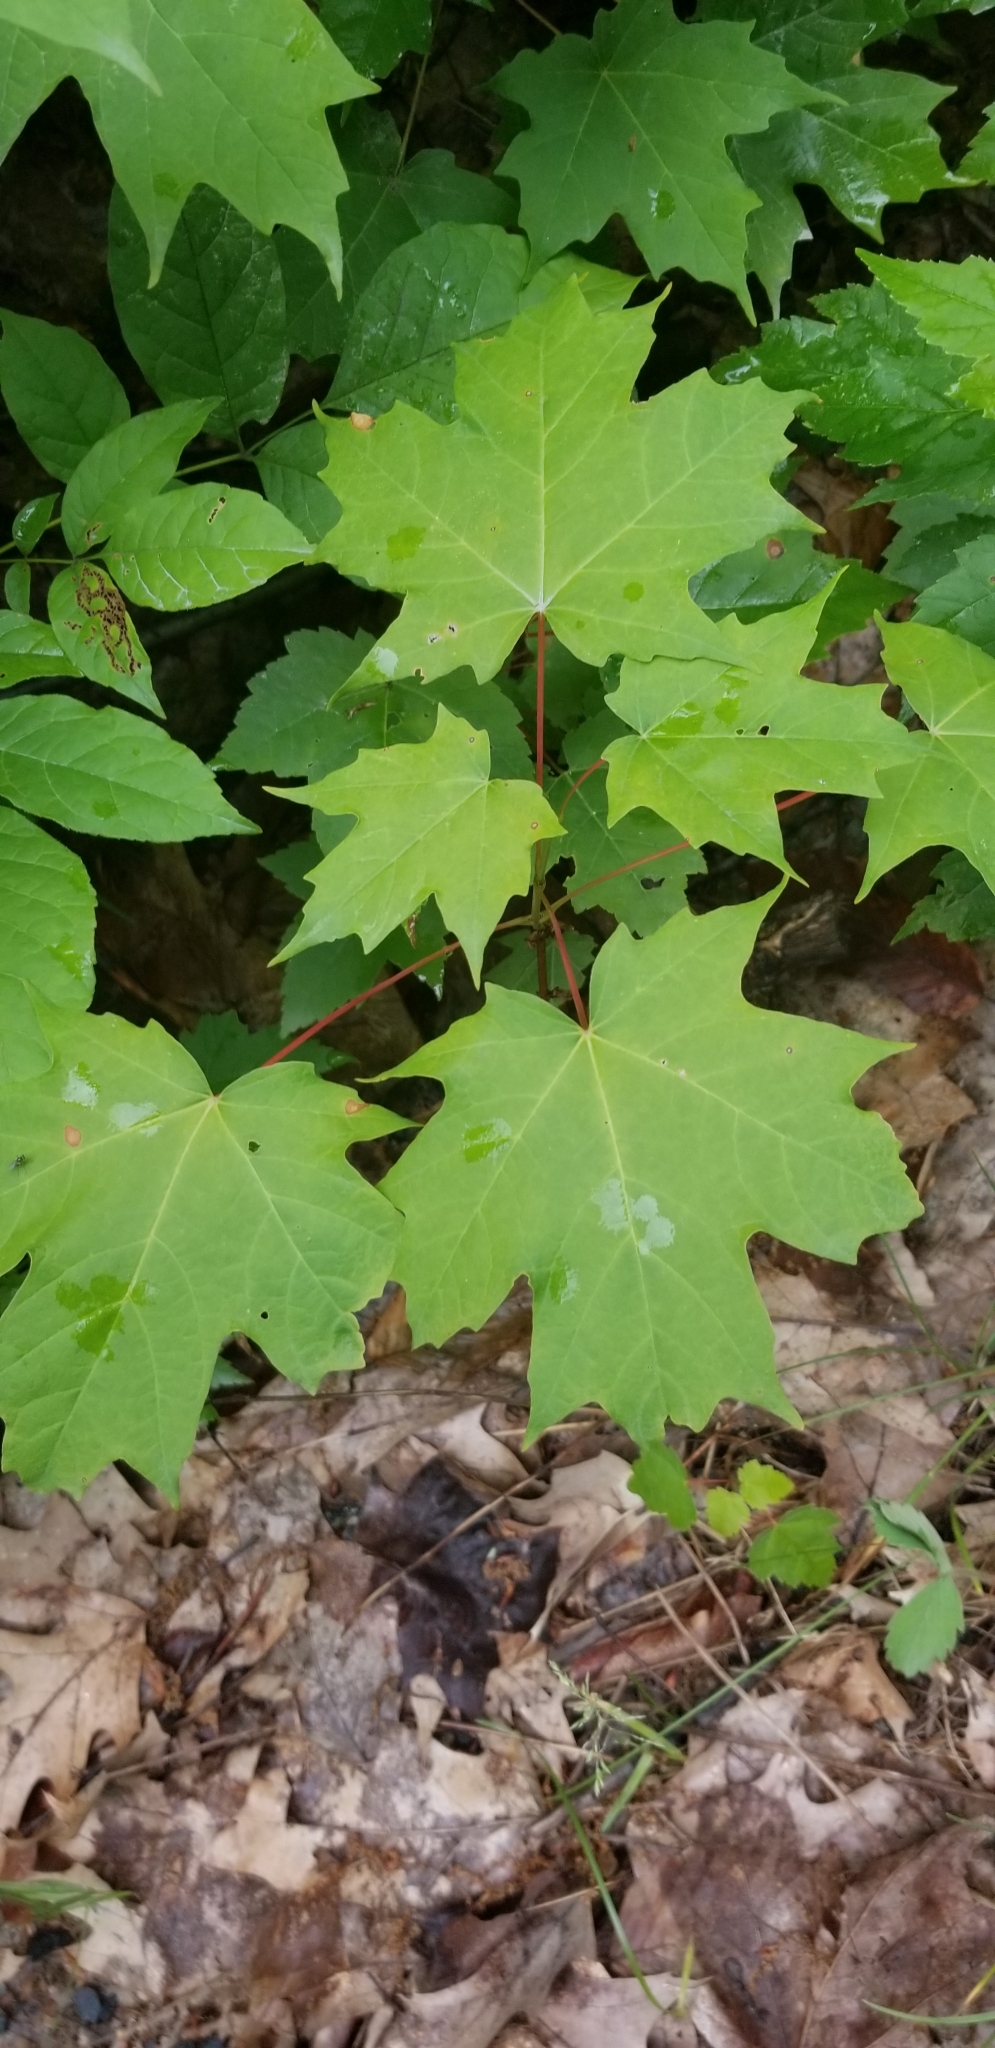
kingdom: Plantae
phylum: Tracheophyta
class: Magnoliopsida
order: Sapindales
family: Sapindaceae
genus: Acer
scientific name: Acer saccharum
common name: Sugar maple
